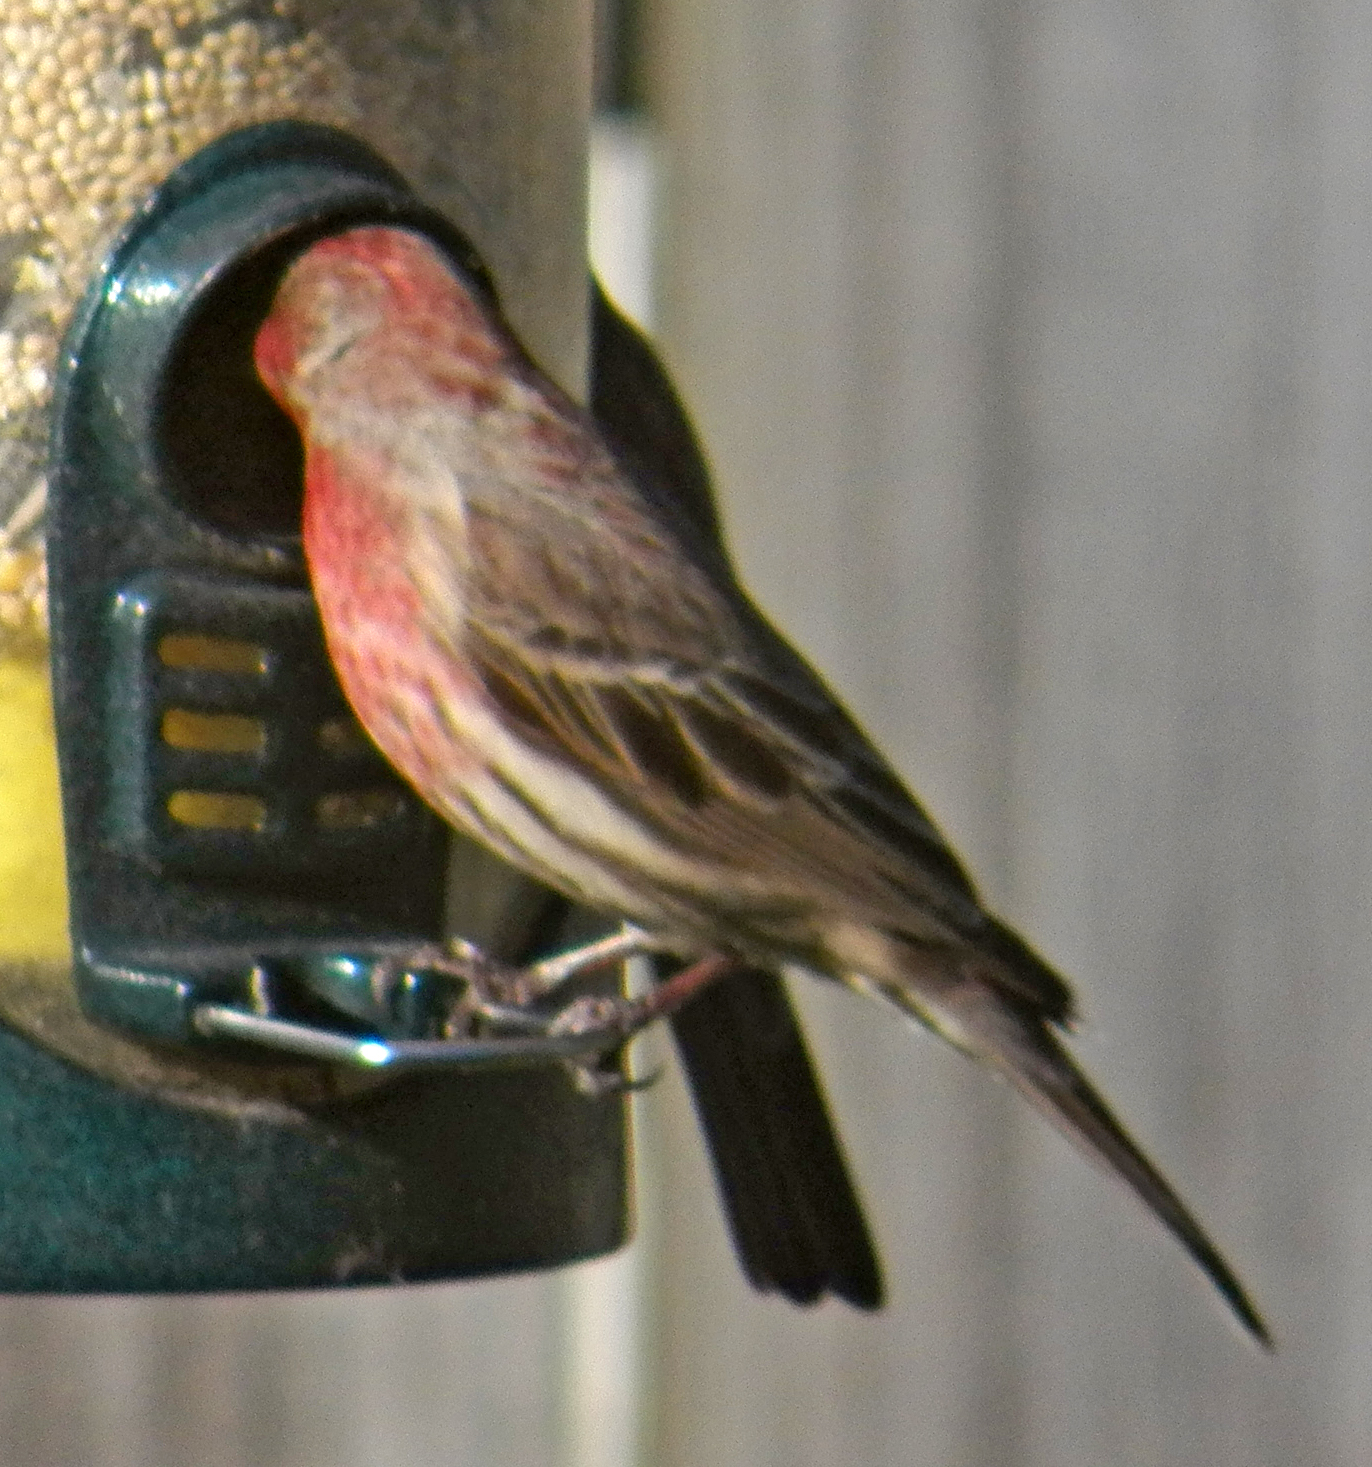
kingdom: Animalia
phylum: Chordata
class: Aves
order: Passeriformes
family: Fringillidae
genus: Haemorhous
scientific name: Haemorhous mexicanus
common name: House finch
